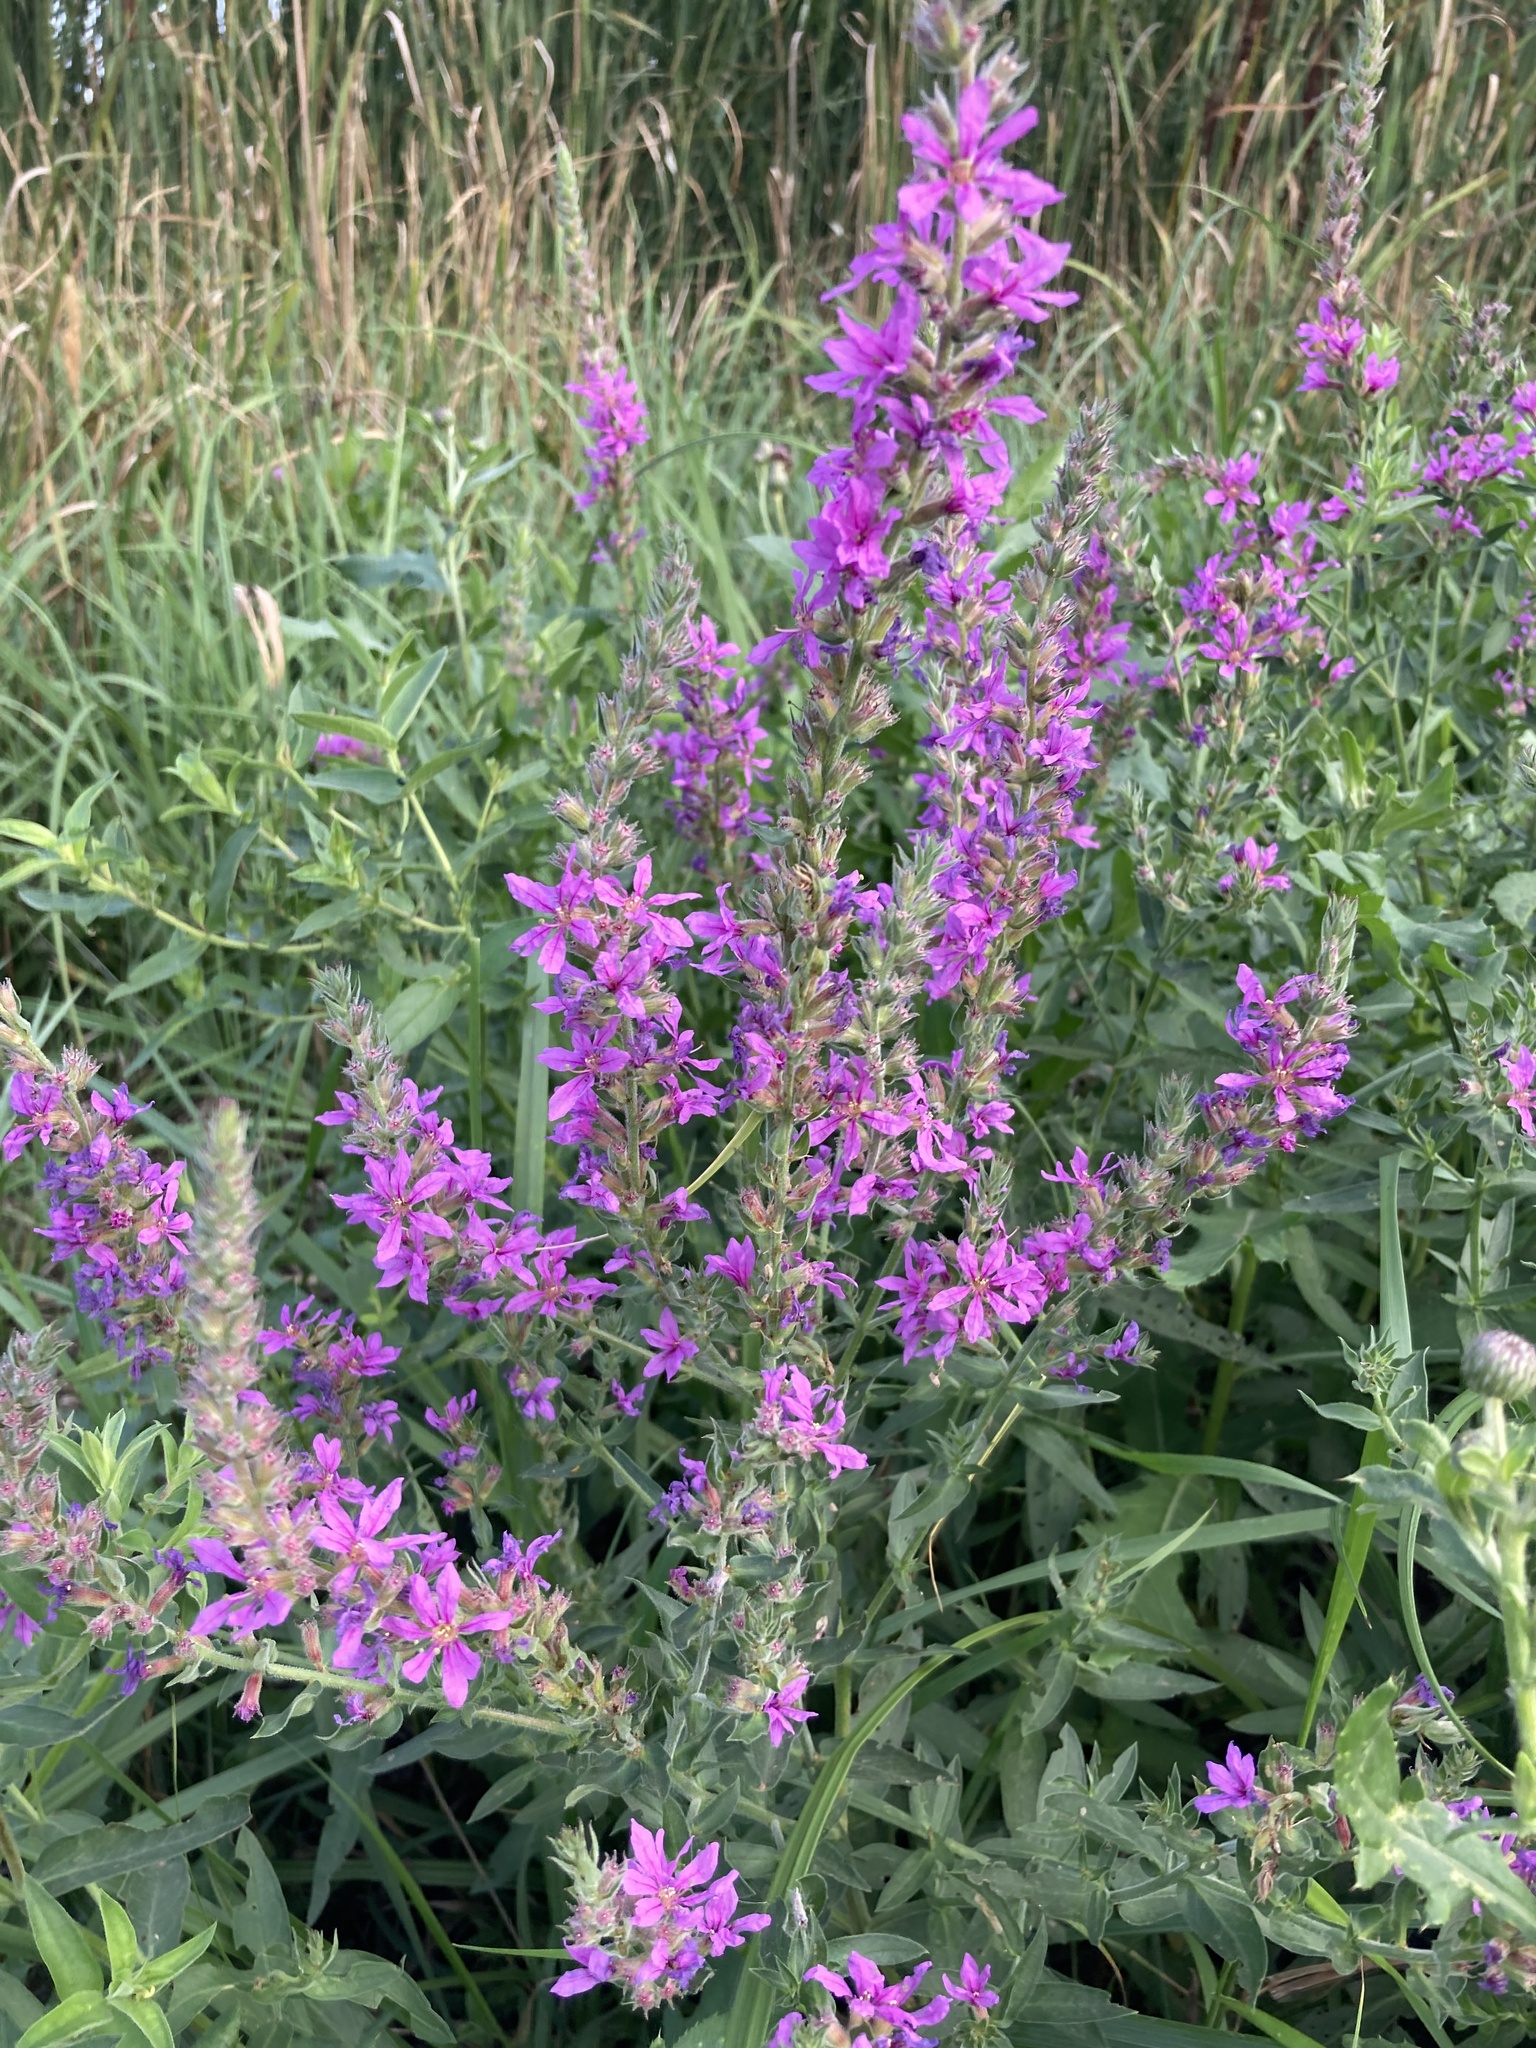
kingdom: Plantae
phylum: Tracheophyta
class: Magnoliopsida
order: Myrtales
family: Lythraceae
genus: Lythrum
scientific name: Lythrum salicaria
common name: Purple loosestrife
